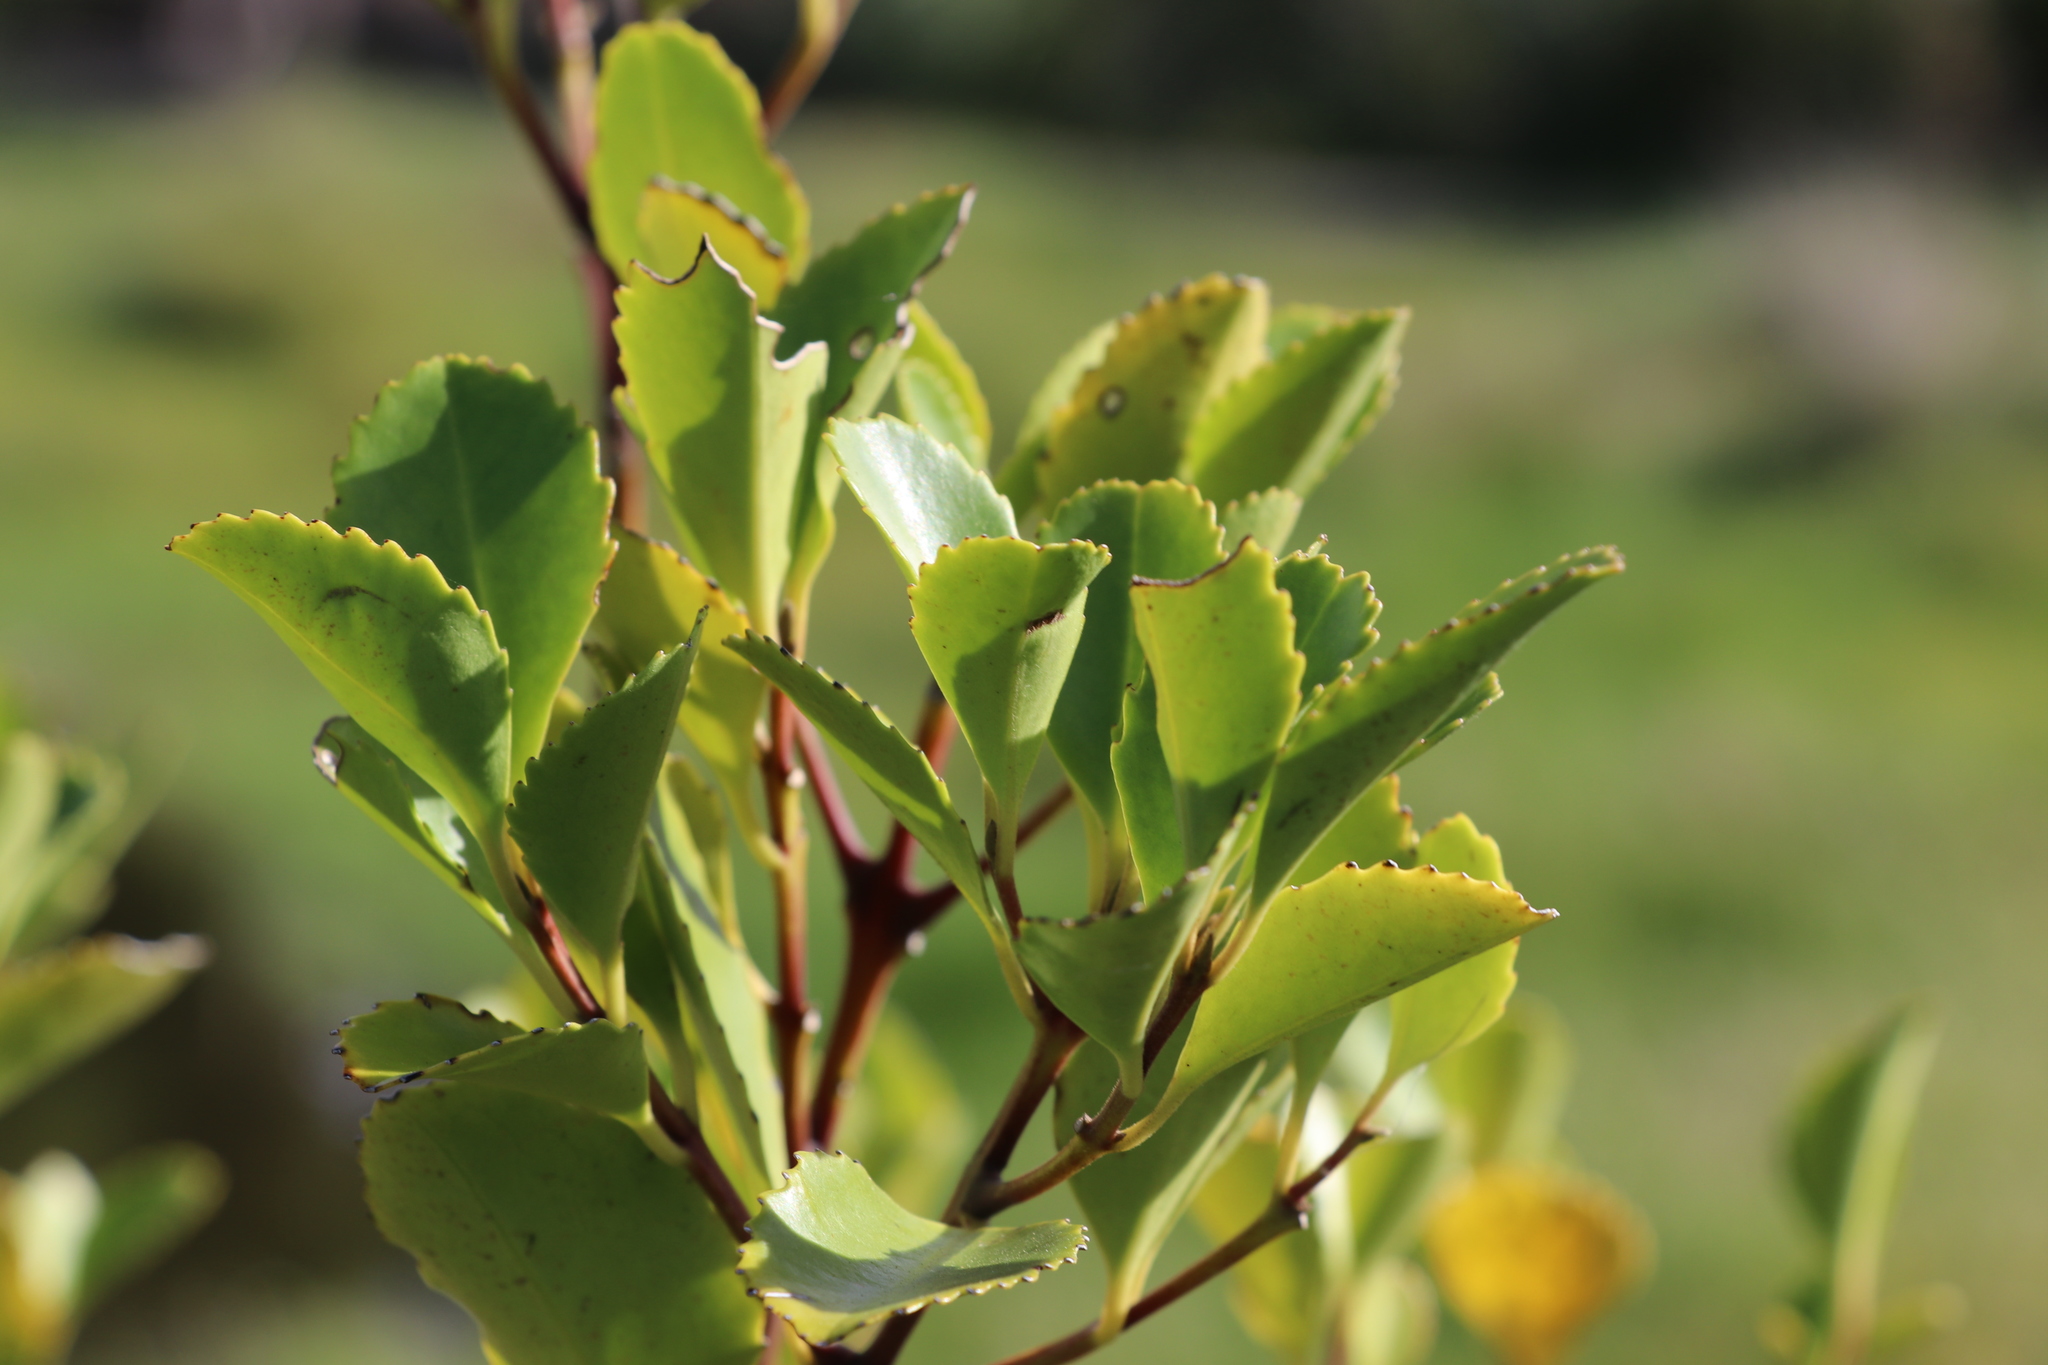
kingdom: Plantae
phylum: Tracheophyta
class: Magnoliopsida
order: Laurales
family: Atherospermataceae
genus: Laurelia
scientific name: Laurelia novae-zelandiae
